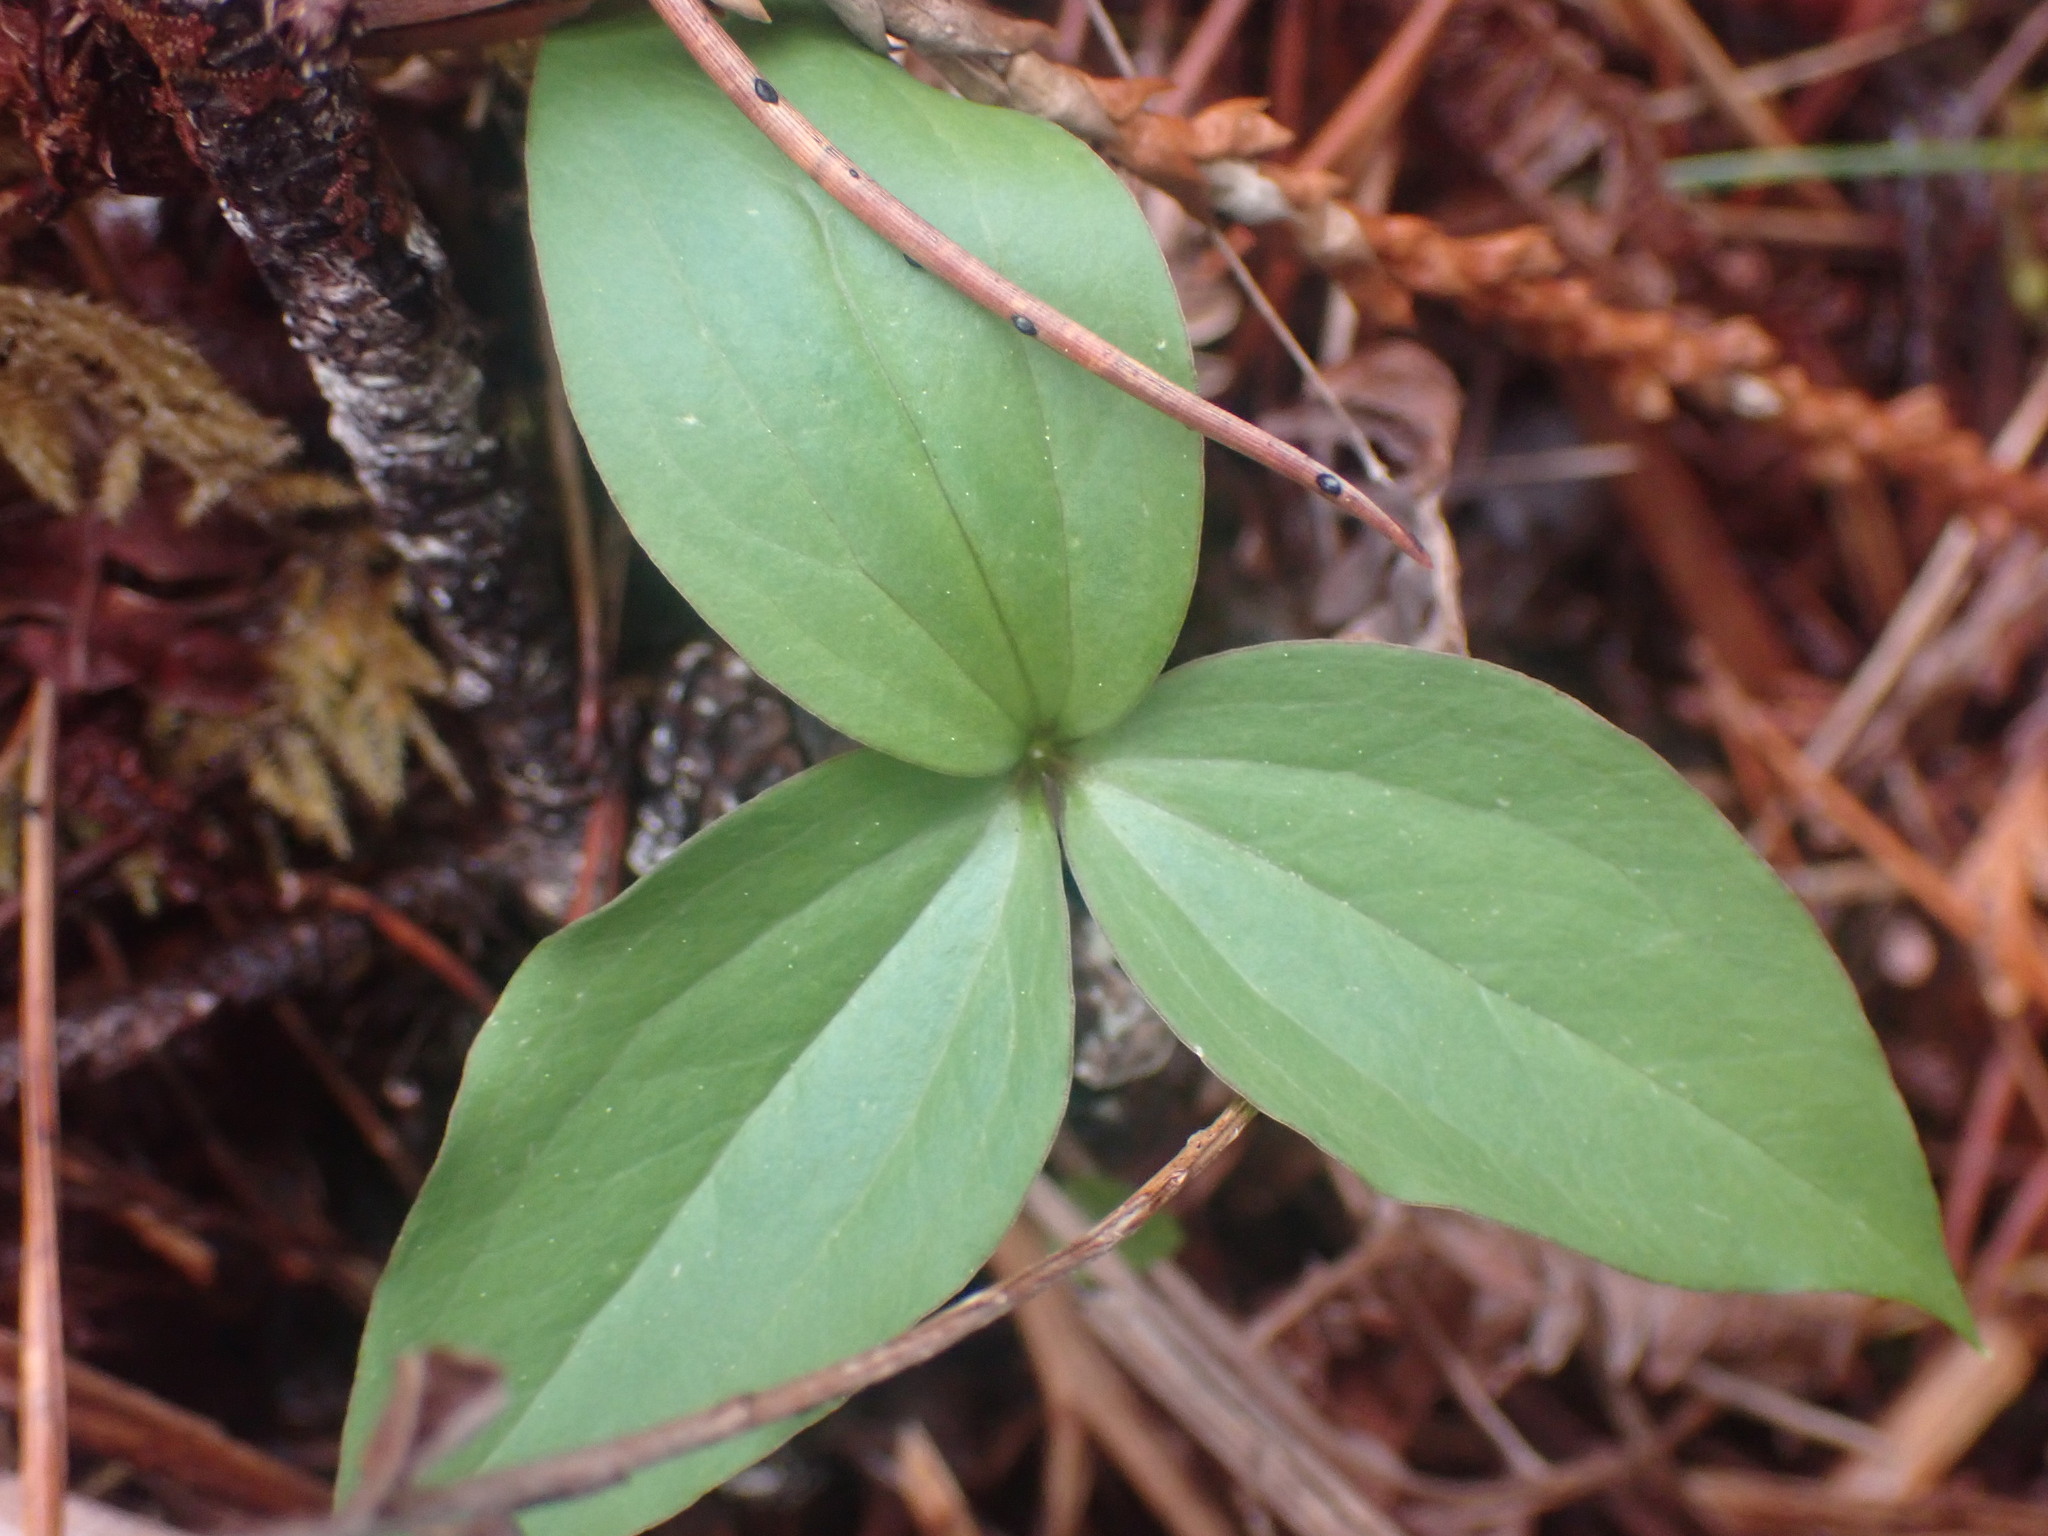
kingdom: Plantae
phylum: Tracheophyta
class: Liliopsida
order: Liliales
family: Melanthiaceae
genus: Trillium
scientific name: Trillium hibbersonii
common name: Hibberson's trillium
